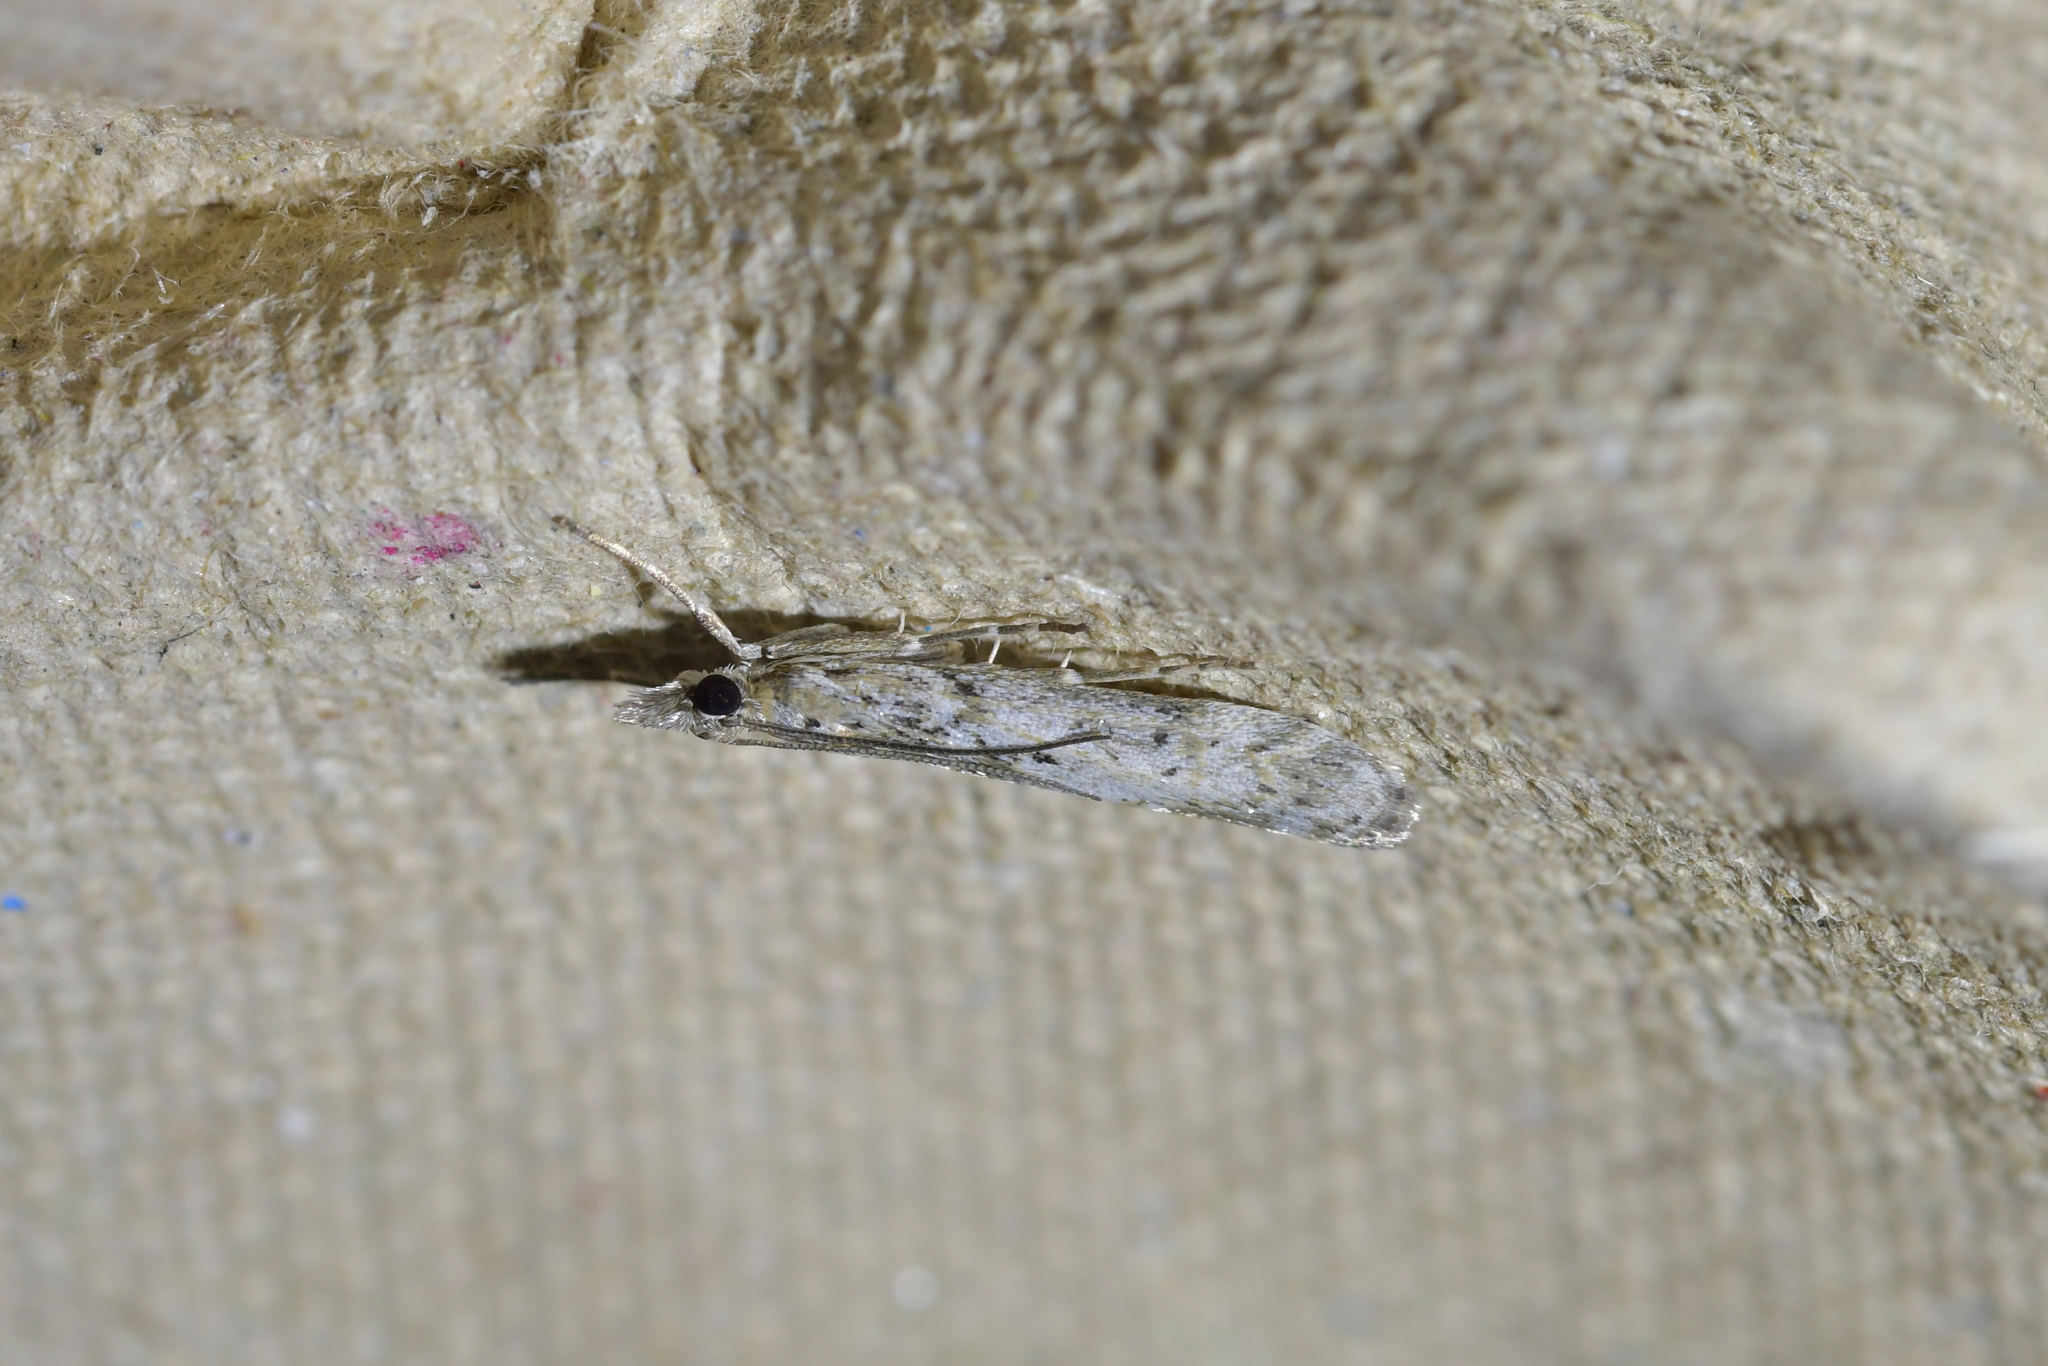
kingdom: Animalia
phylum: Arthropoda
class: Insecta
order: Lepidoptera
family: Crambidae
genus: Eudonia
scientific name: Eudonia leptalea
